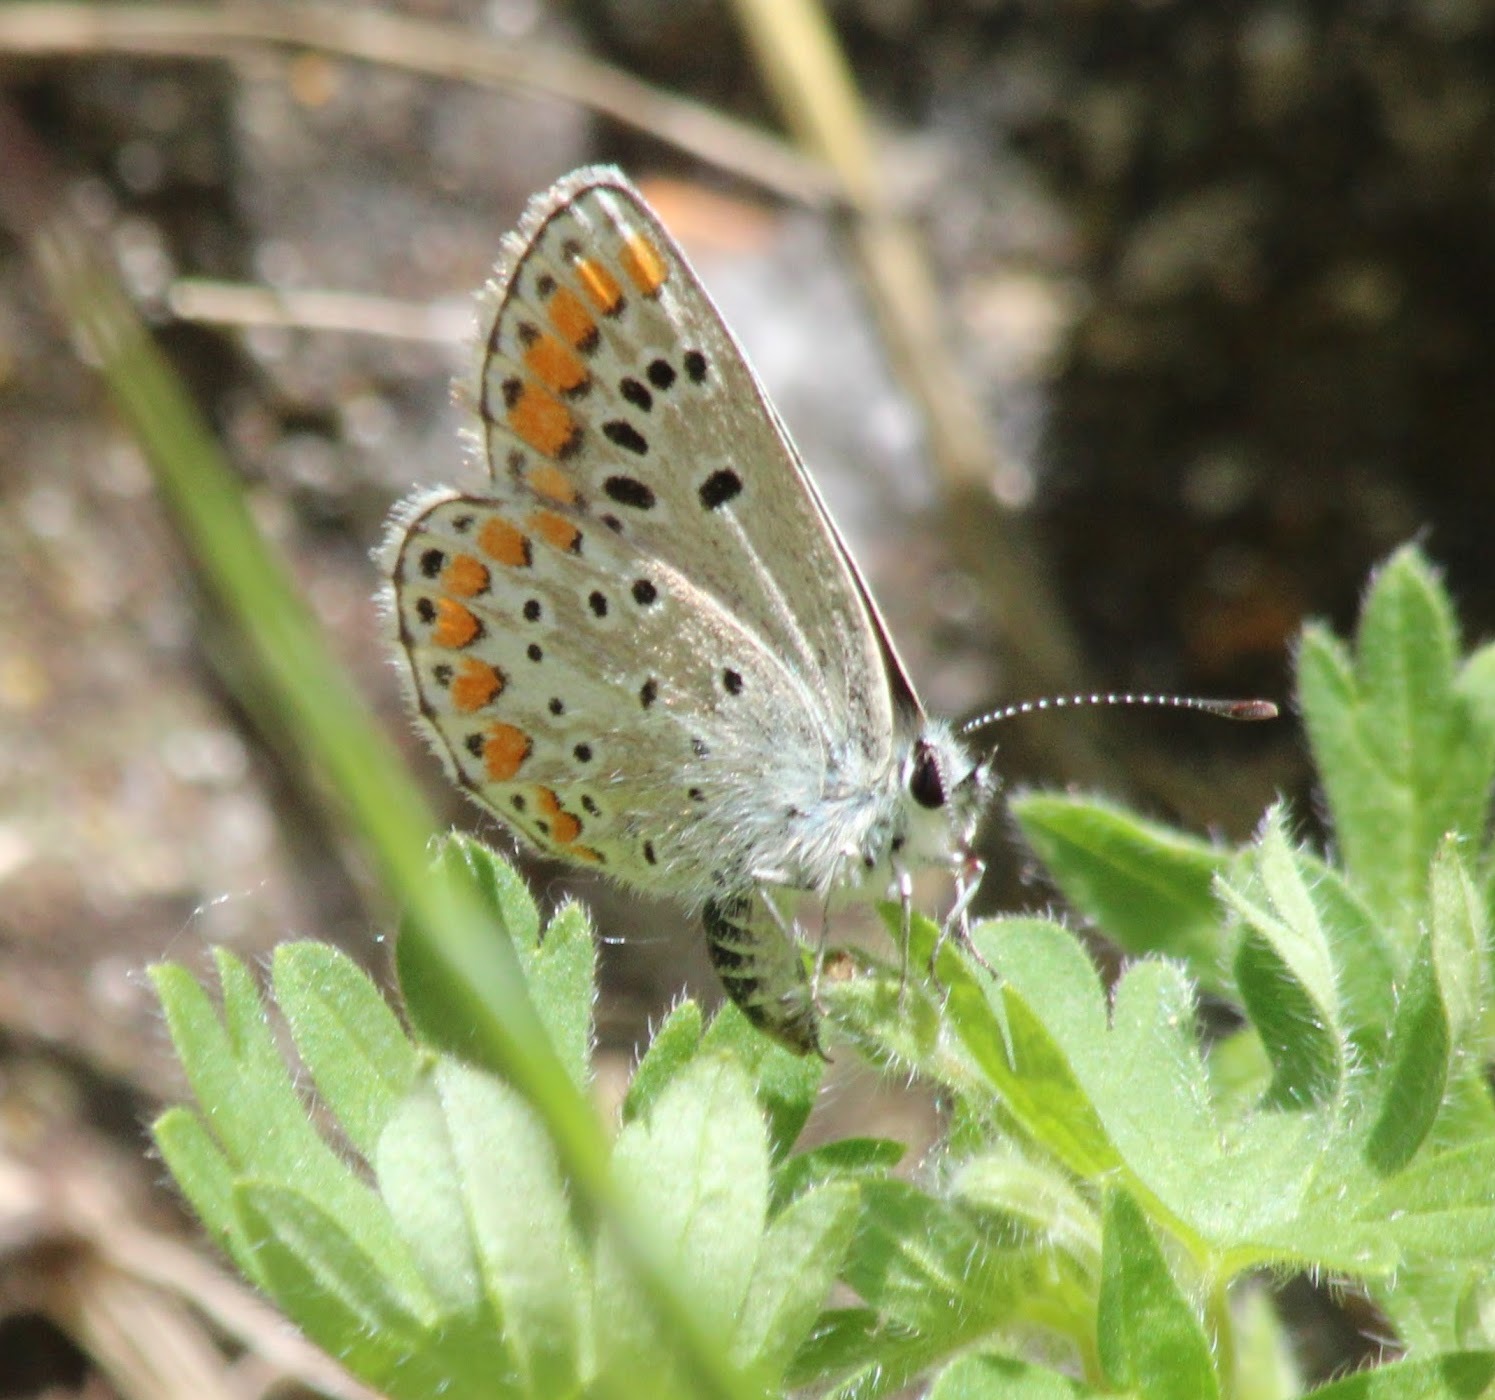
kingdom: Animalia
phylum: Arthropoda
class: Insecta
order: Lepidoptera
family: Lycaenidae
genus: Aricia
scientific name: Aricia agestis
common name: Brown argus
